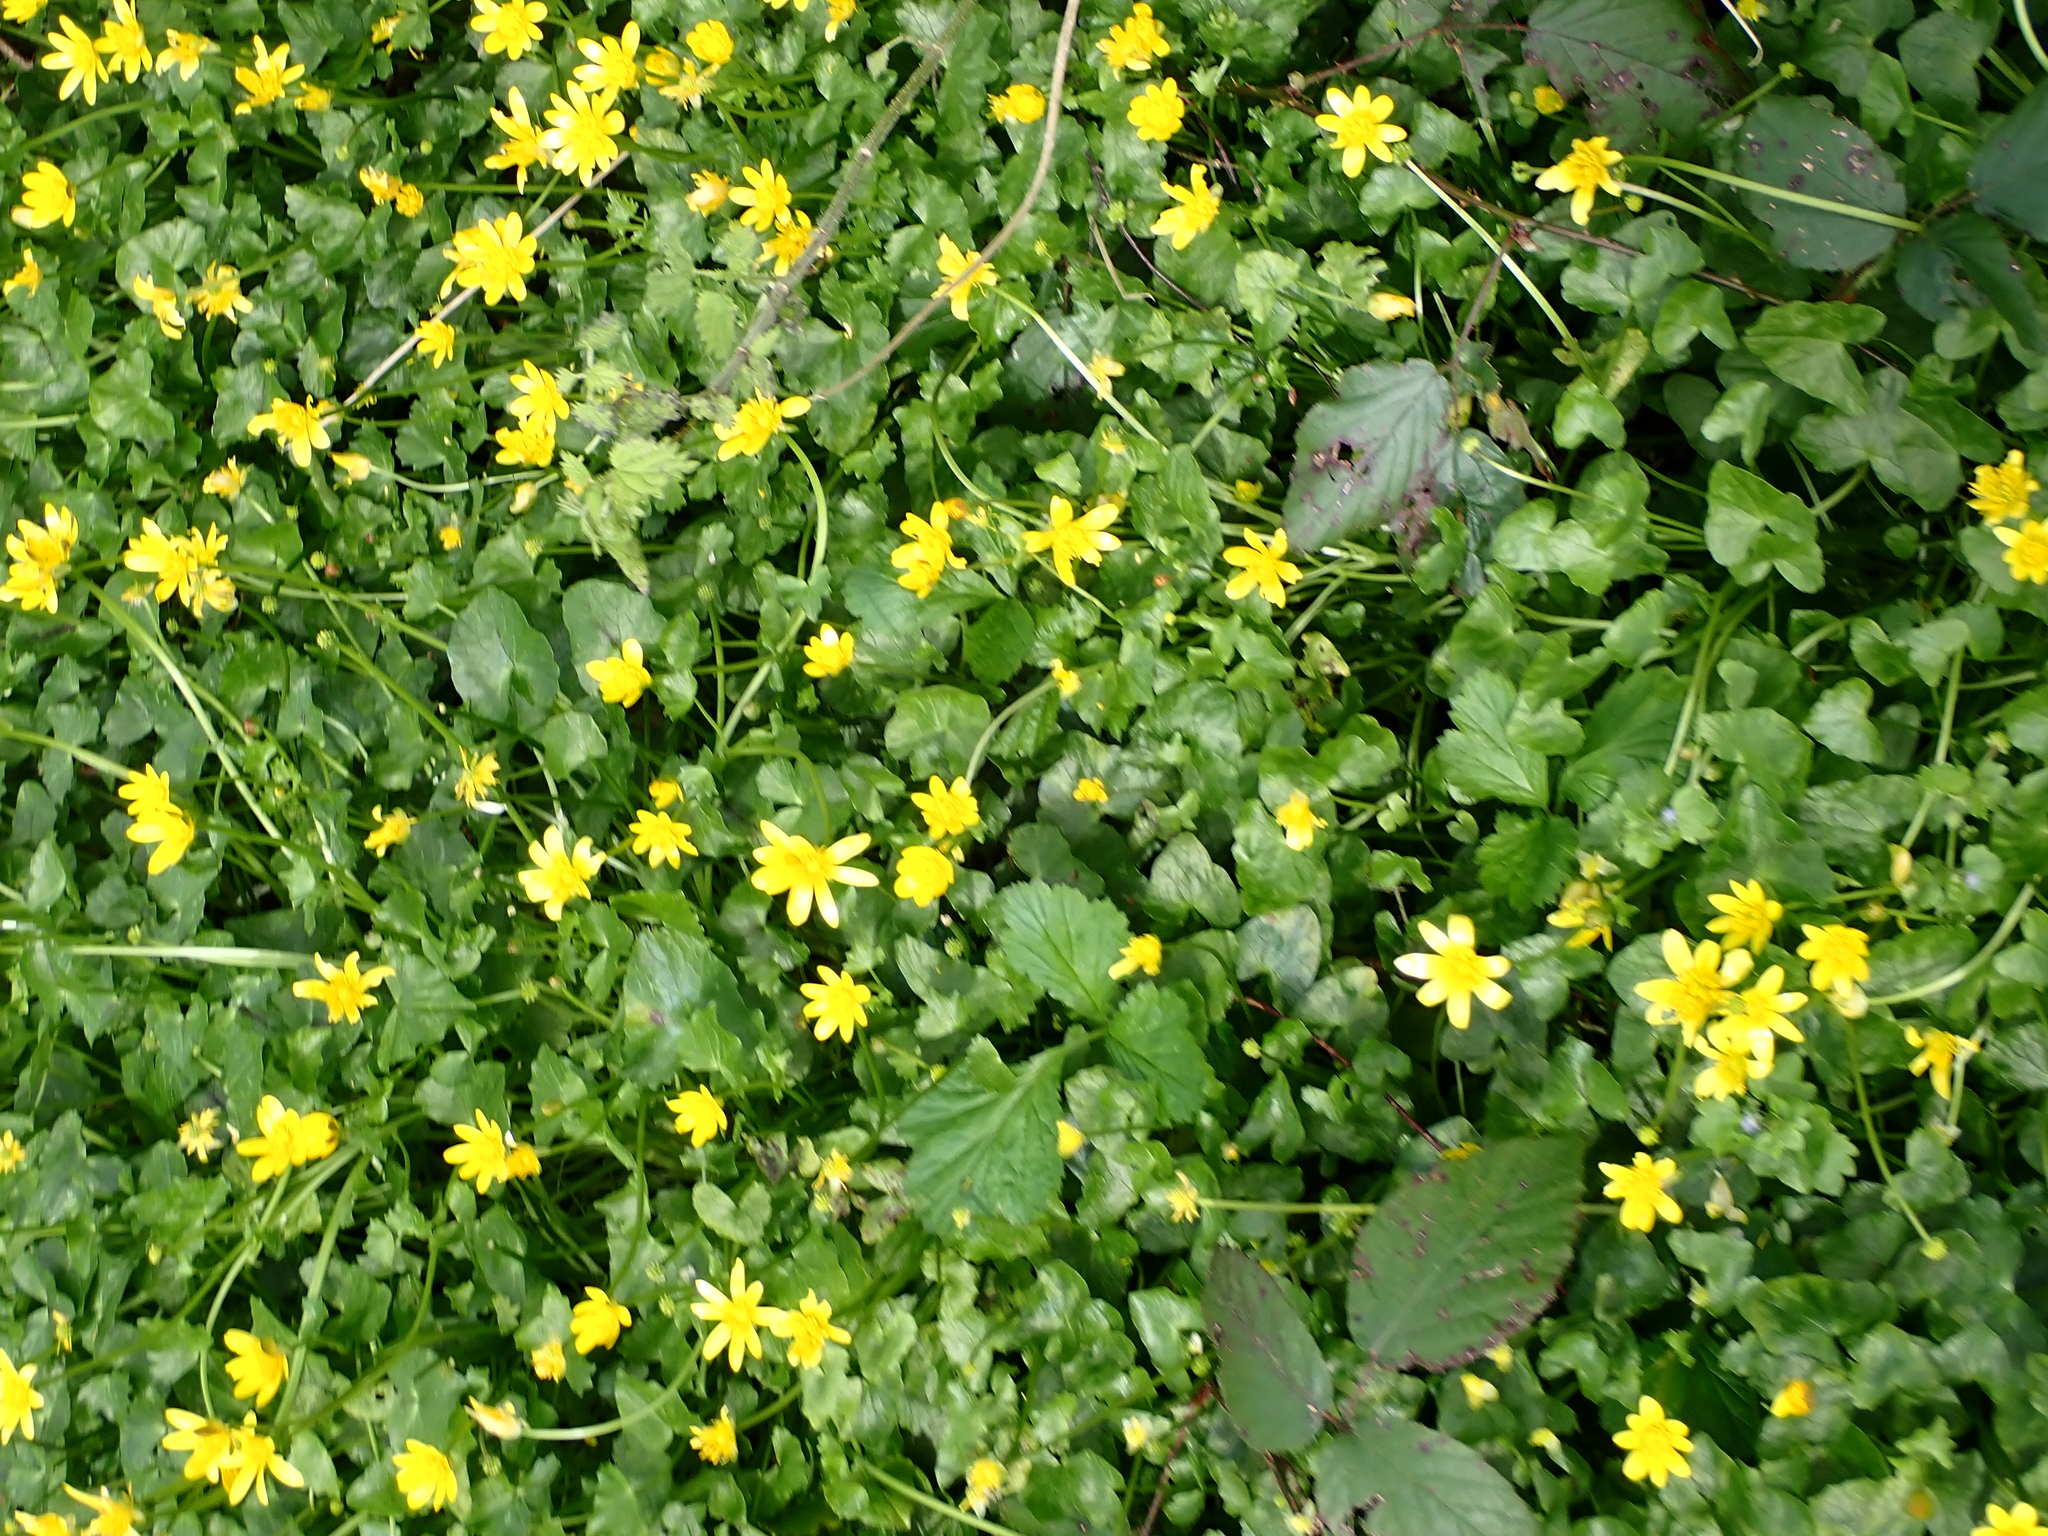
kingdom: Plantae
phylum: Tracheophyta
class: Magnoliopsida
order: Ranunculales
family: Ranunculaceae
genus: Ficaria
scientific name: Ficaria verna
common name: Lesser celandine
